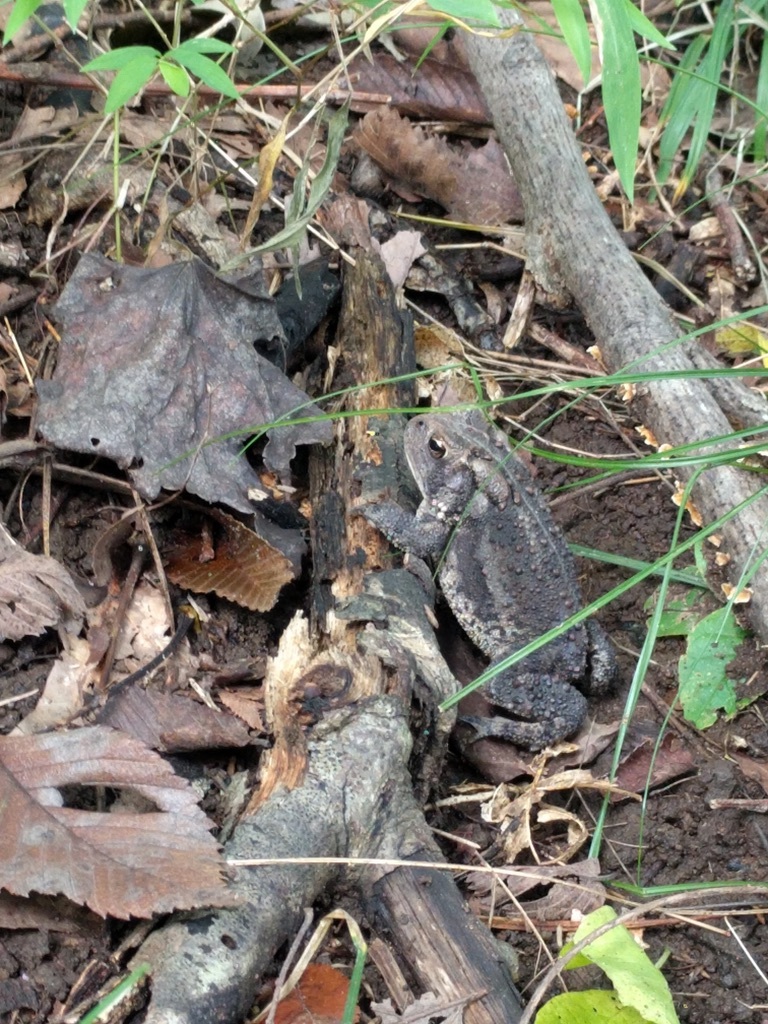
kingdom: Animalia
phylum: Chordata
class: Amphibia
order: Anura
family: Bufonidae
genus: Anaxyrus
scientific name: Anaxyrus americanus
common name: American toad
